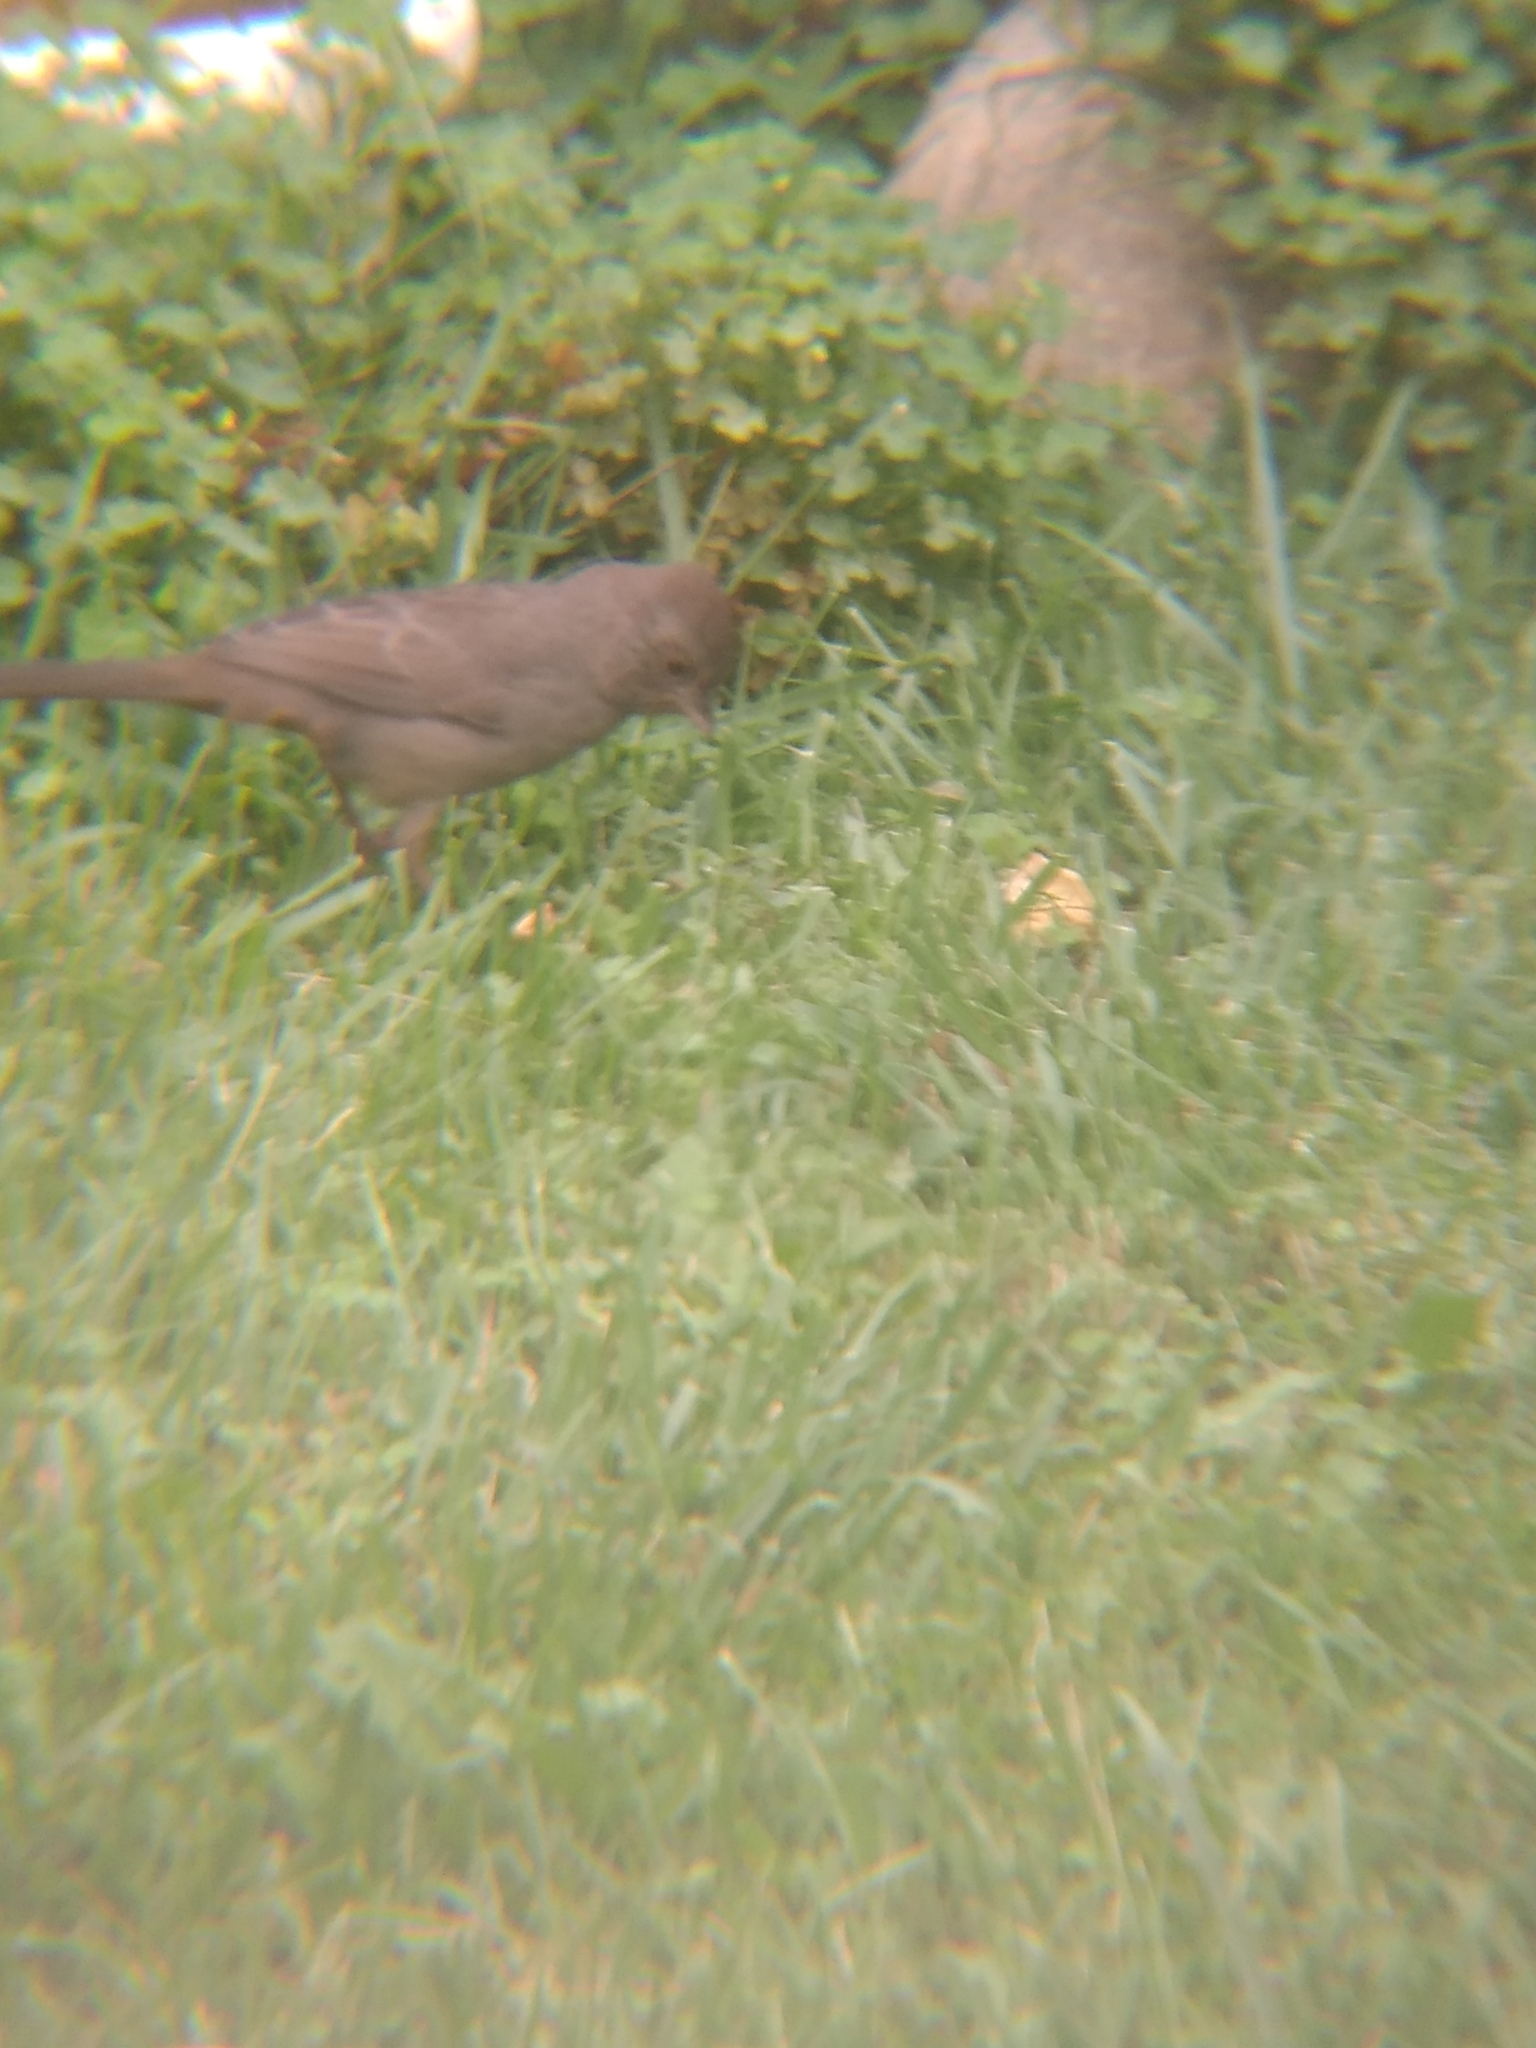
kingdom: Animalia
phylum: Chordata
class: Aves
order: Passeriformes
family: Passerellidae
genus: Melozone
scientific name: Melozone crissalis
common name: California towhee
